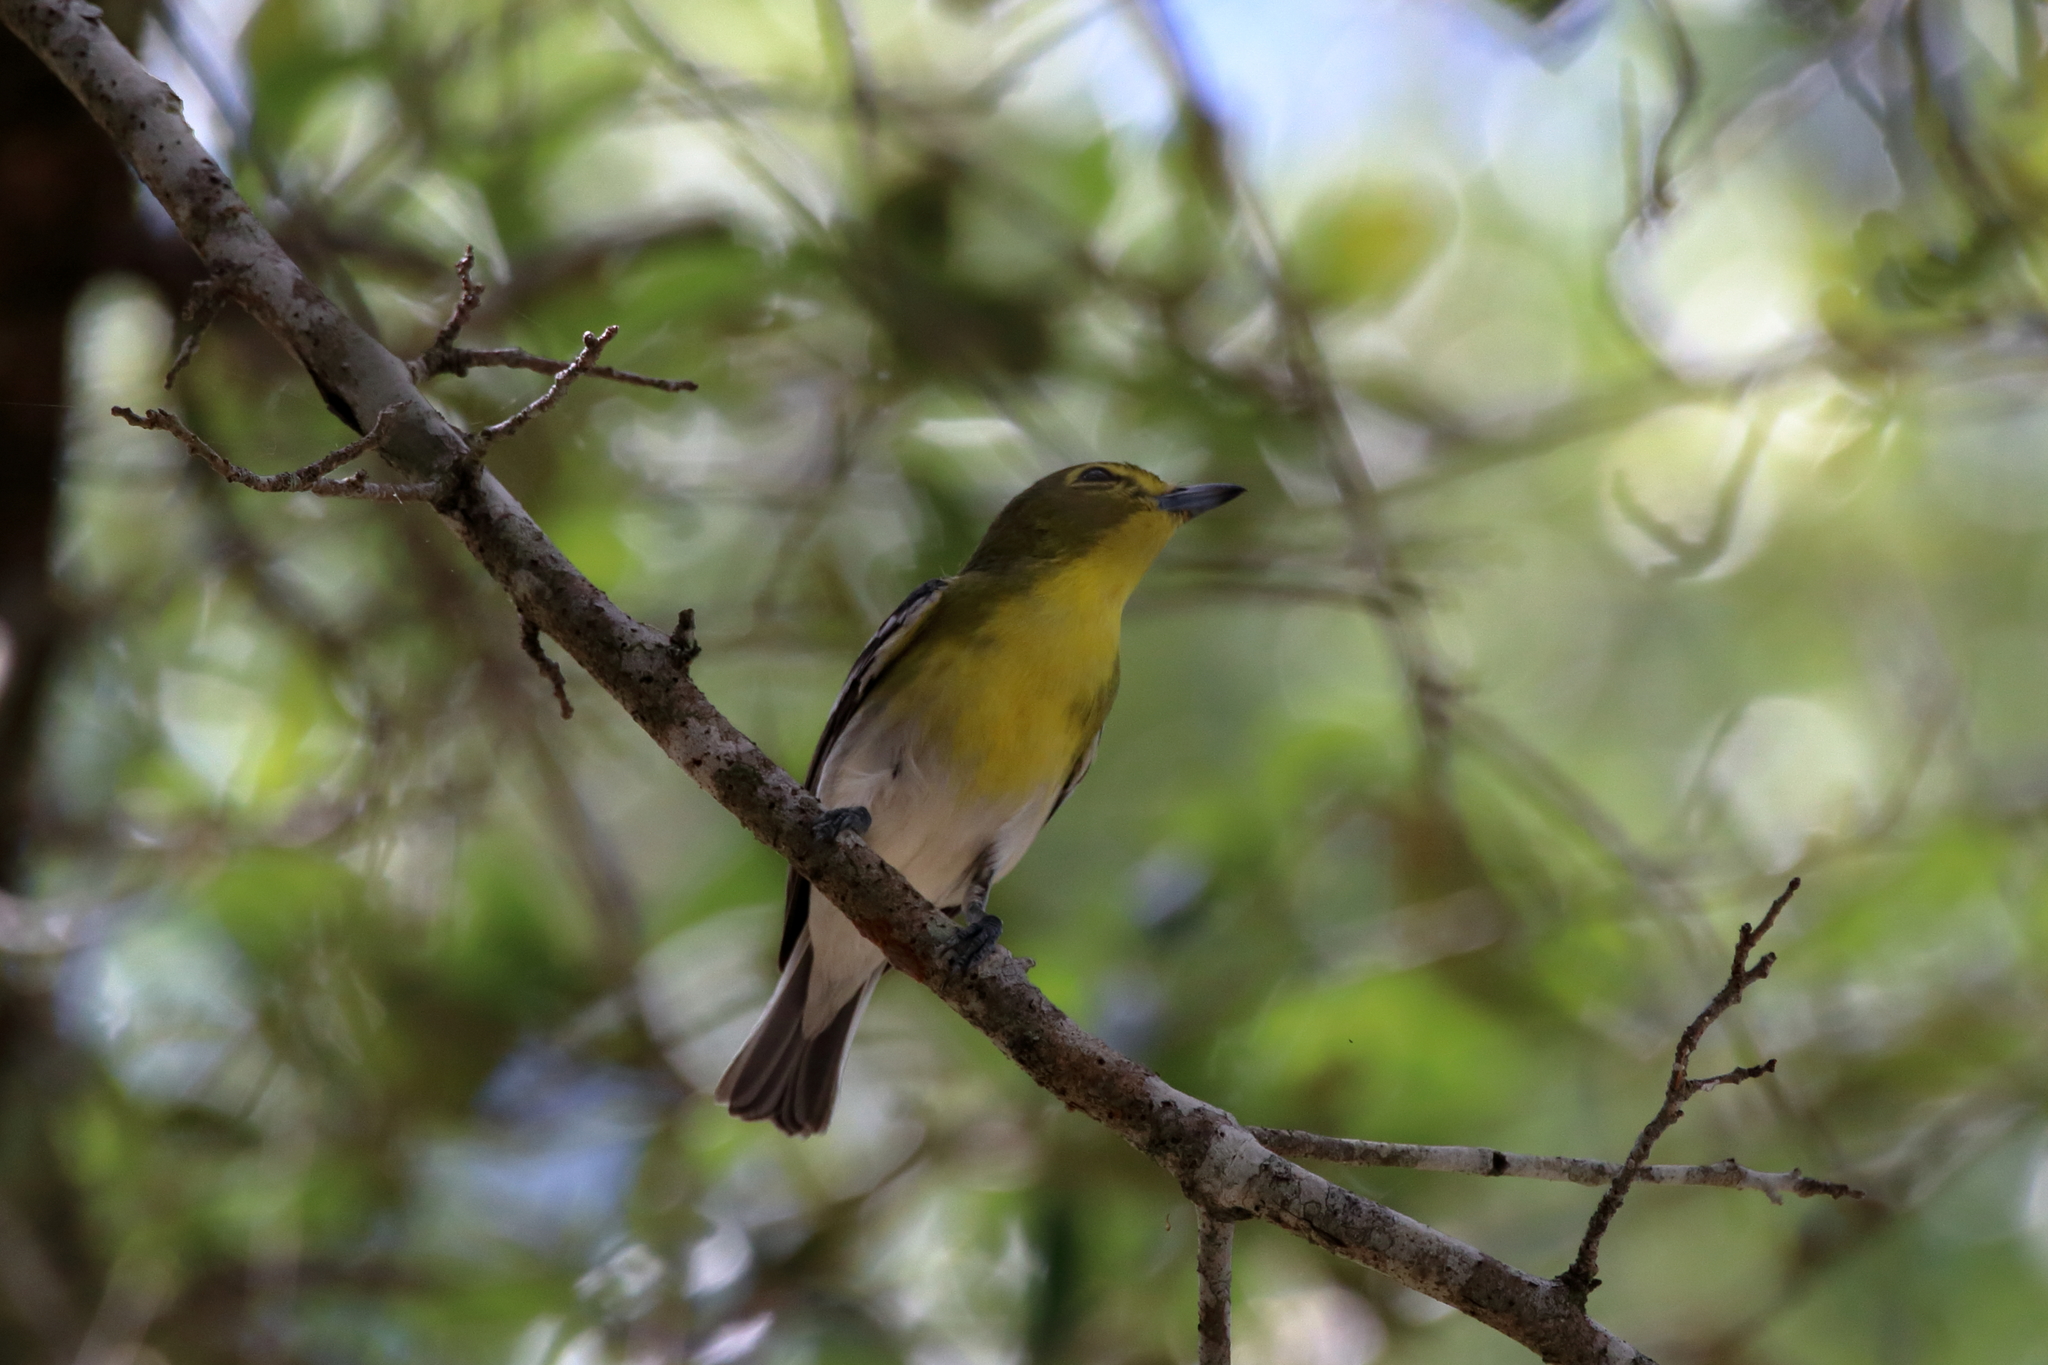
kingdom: Animalia
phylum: Chordata
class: Aves
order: Passeriformes
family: Vireonidae
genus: Vireo
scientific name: Vireo flavifrons
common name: Yellow-throated vireo
